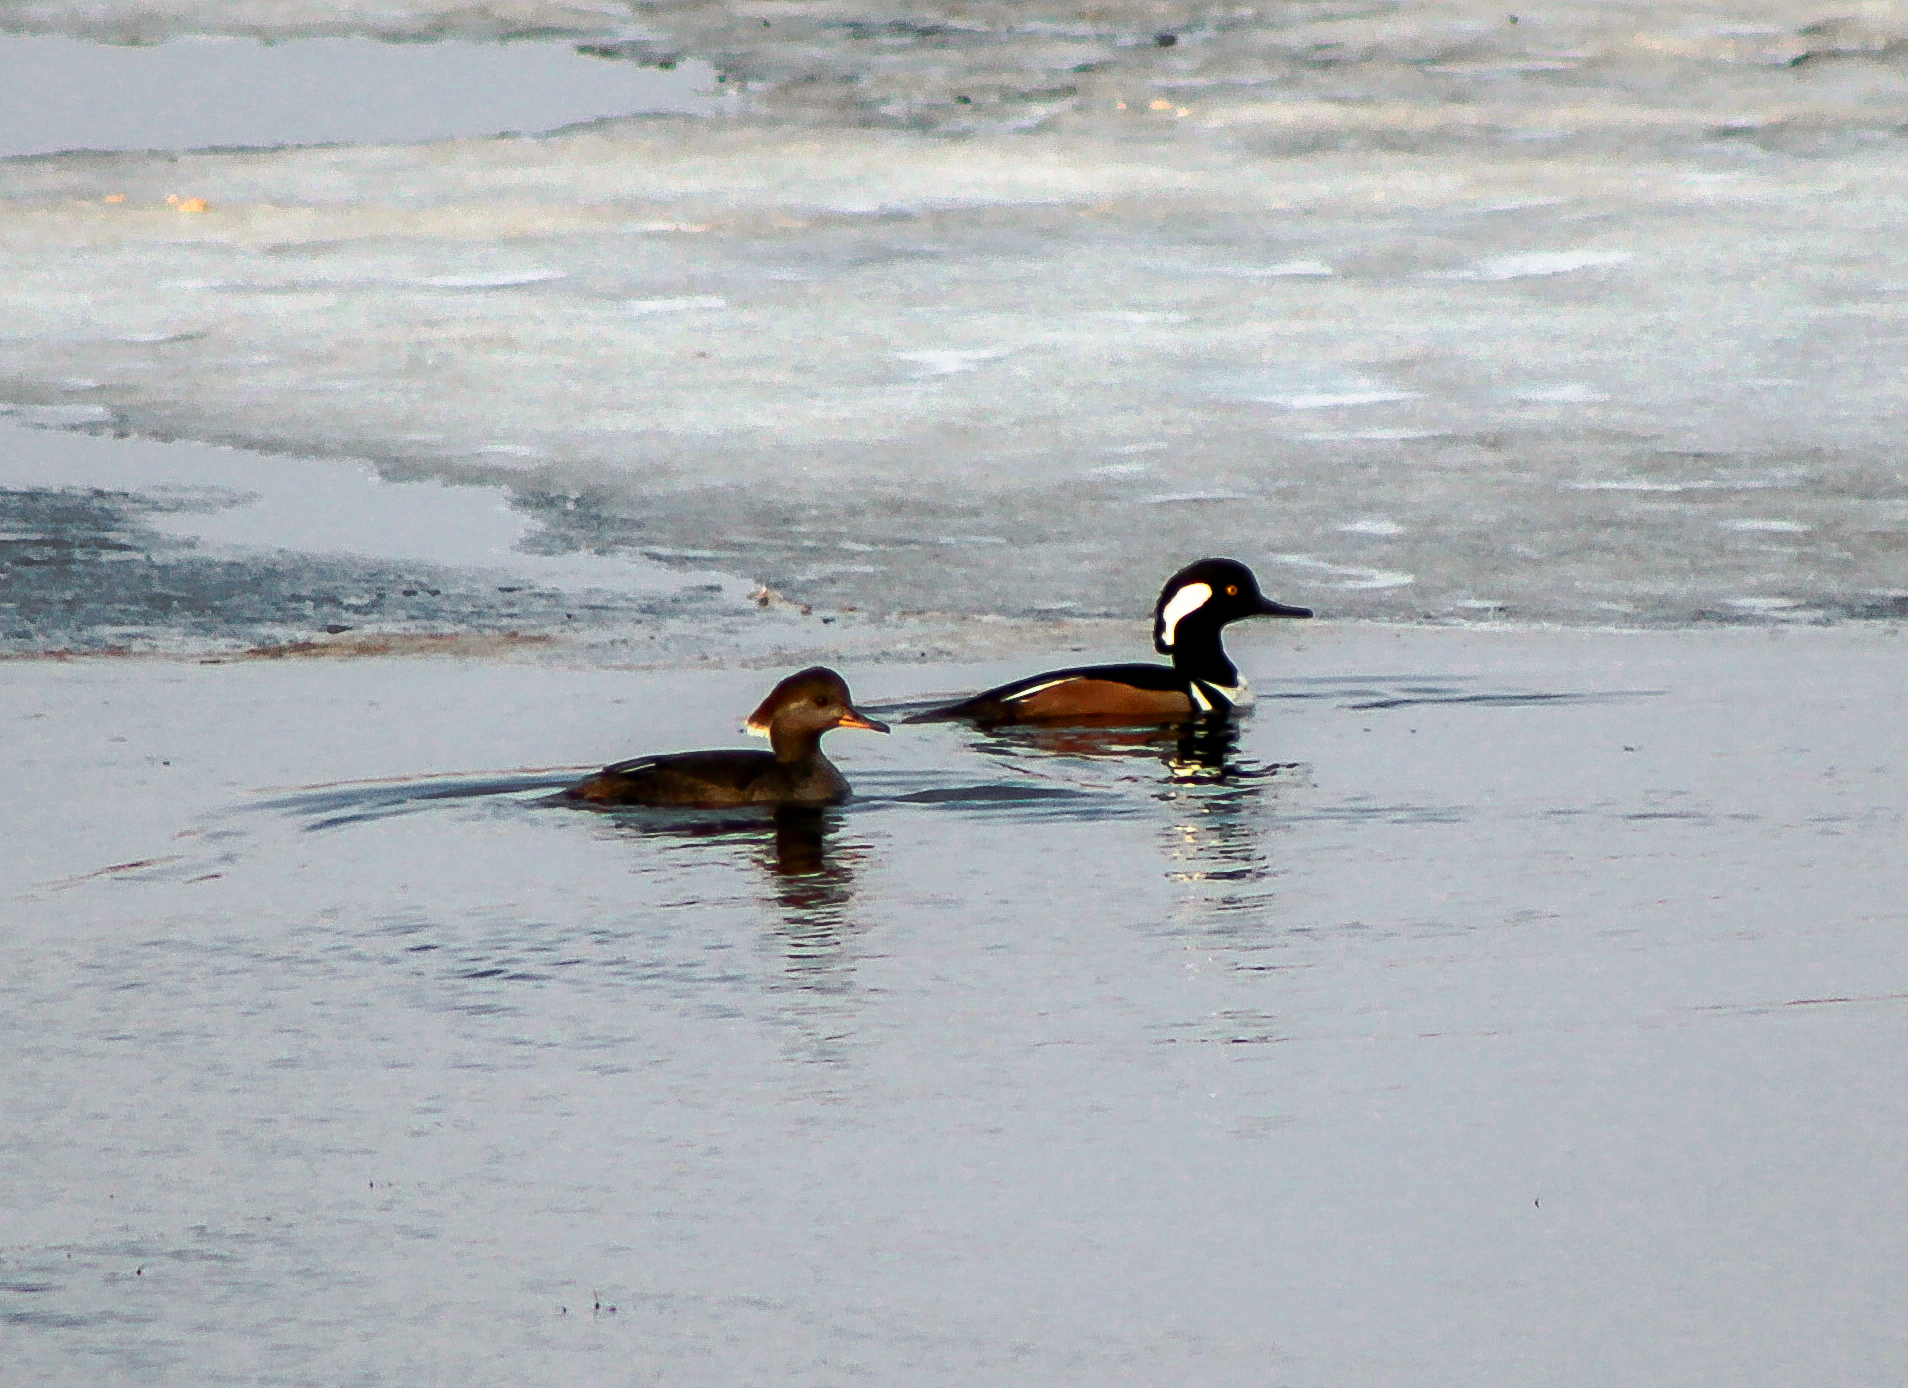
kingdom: Animalia
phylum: Chordata
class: Aves
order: Anseriformes
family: Anatidae
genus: Lophodytes
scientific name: Lophodytes cucullatus
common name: Hooded merganser
